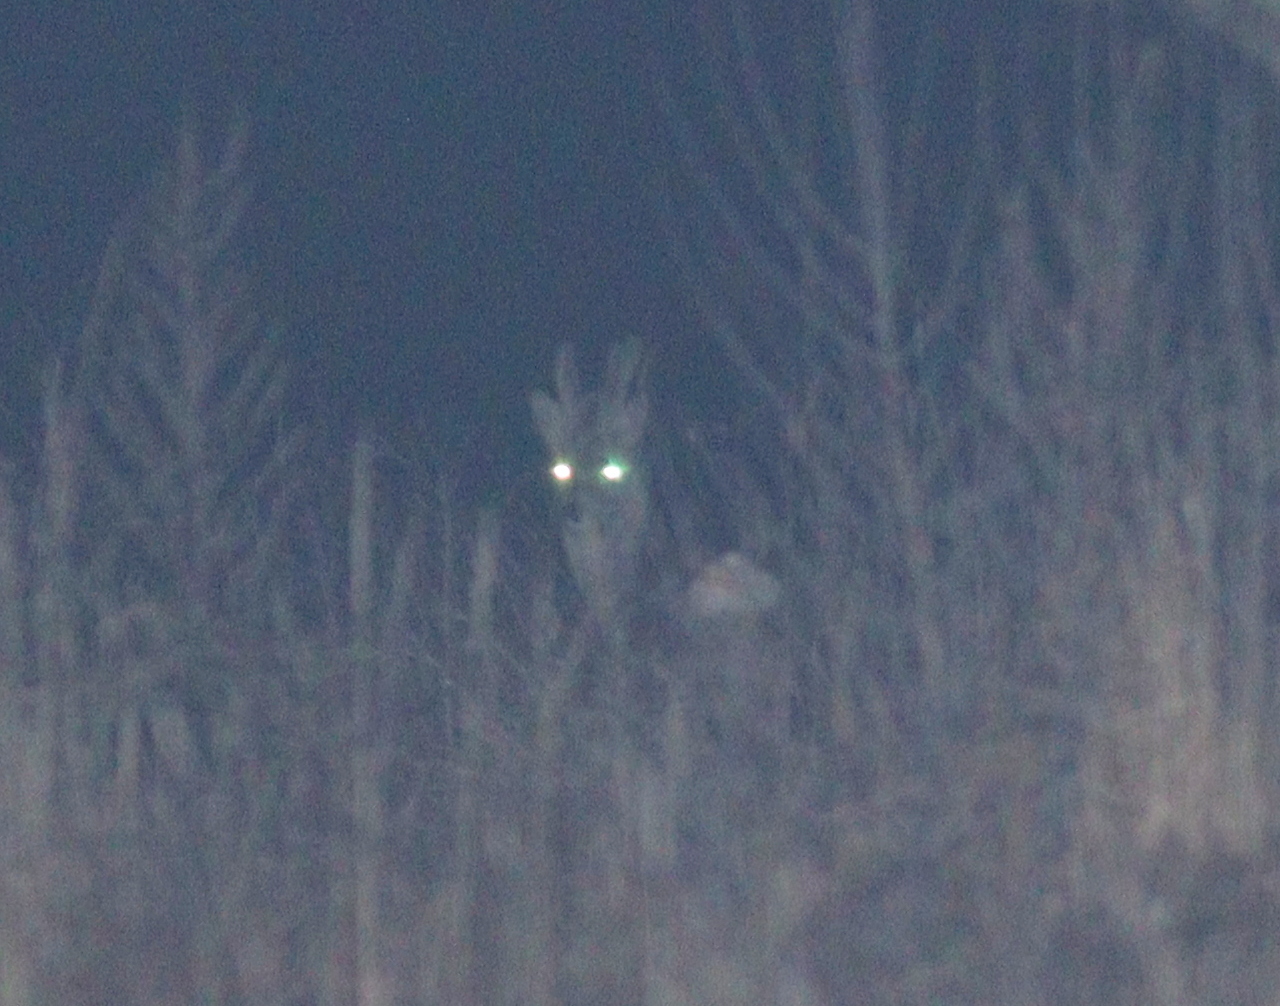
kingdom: Animalia
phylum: Chordata
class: Mammalia
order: Artiodactyla
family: Cervidae
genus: Capreolus
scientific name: Capreolus capreolus
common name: Western roe deer
